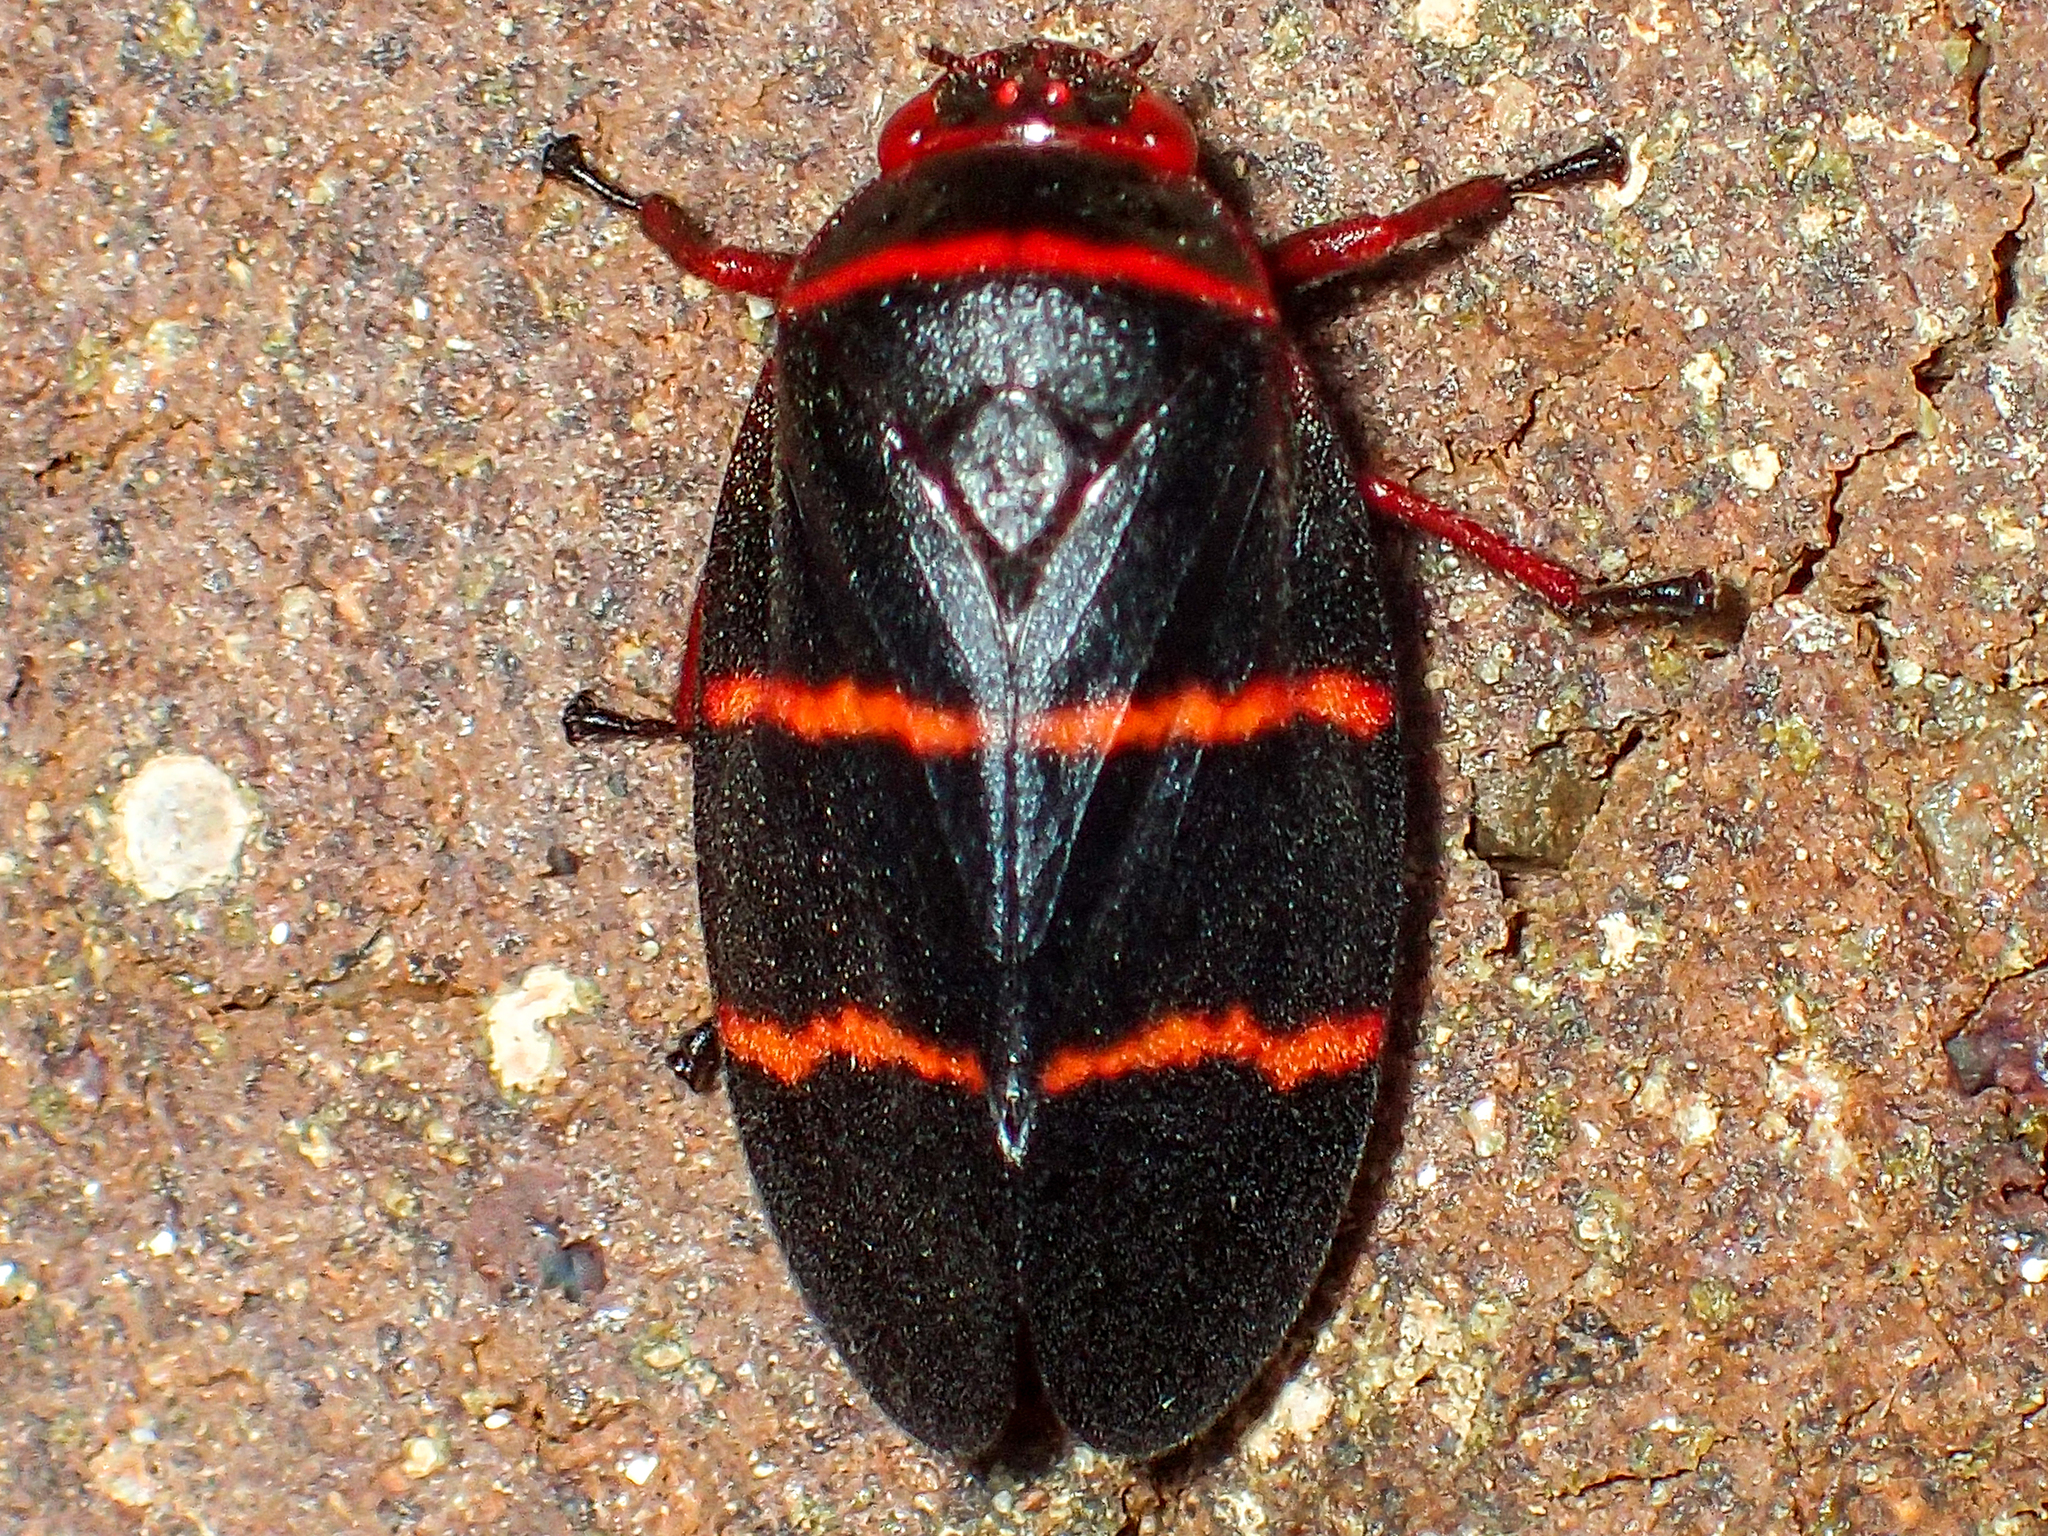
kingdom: Animalia
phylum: Arthropoda
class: Insecta
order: Hemiptera
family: Cercopidae
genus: Prosapia
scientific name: Prosapia bicincta
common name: Twolined spittlebug
